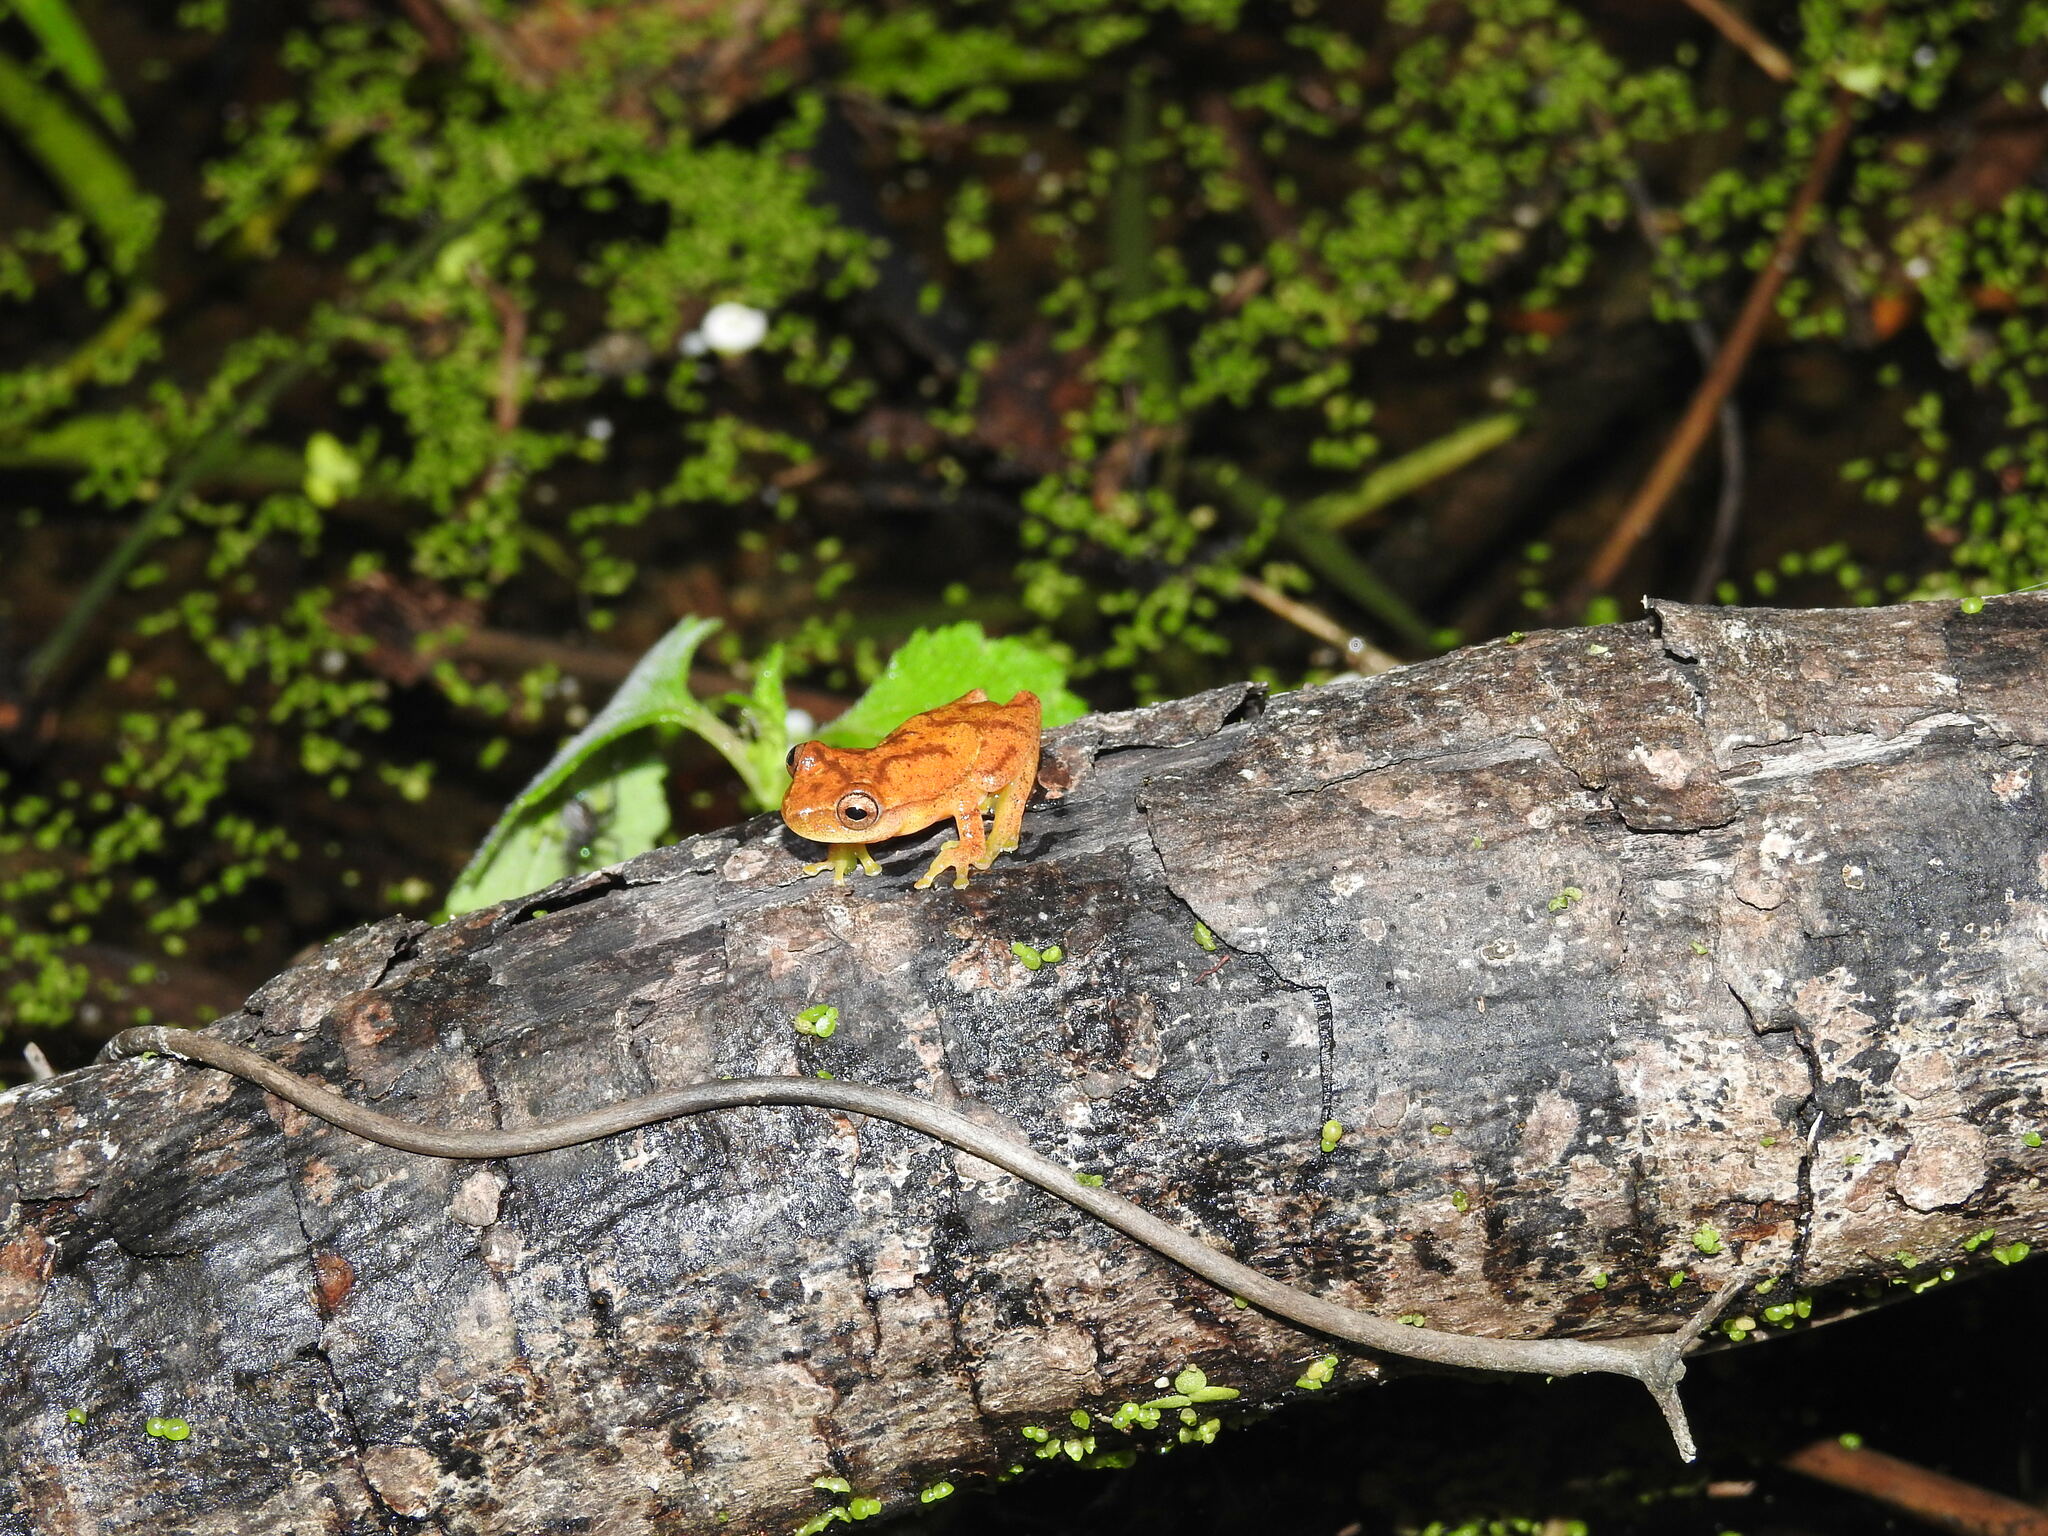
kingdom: Animalia
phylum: Chordata
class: Amphibia
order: Anura
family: Hylidae
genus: Dendropsophus
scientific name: Dendropsophus microcephalus
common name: Small-headed treefrog
